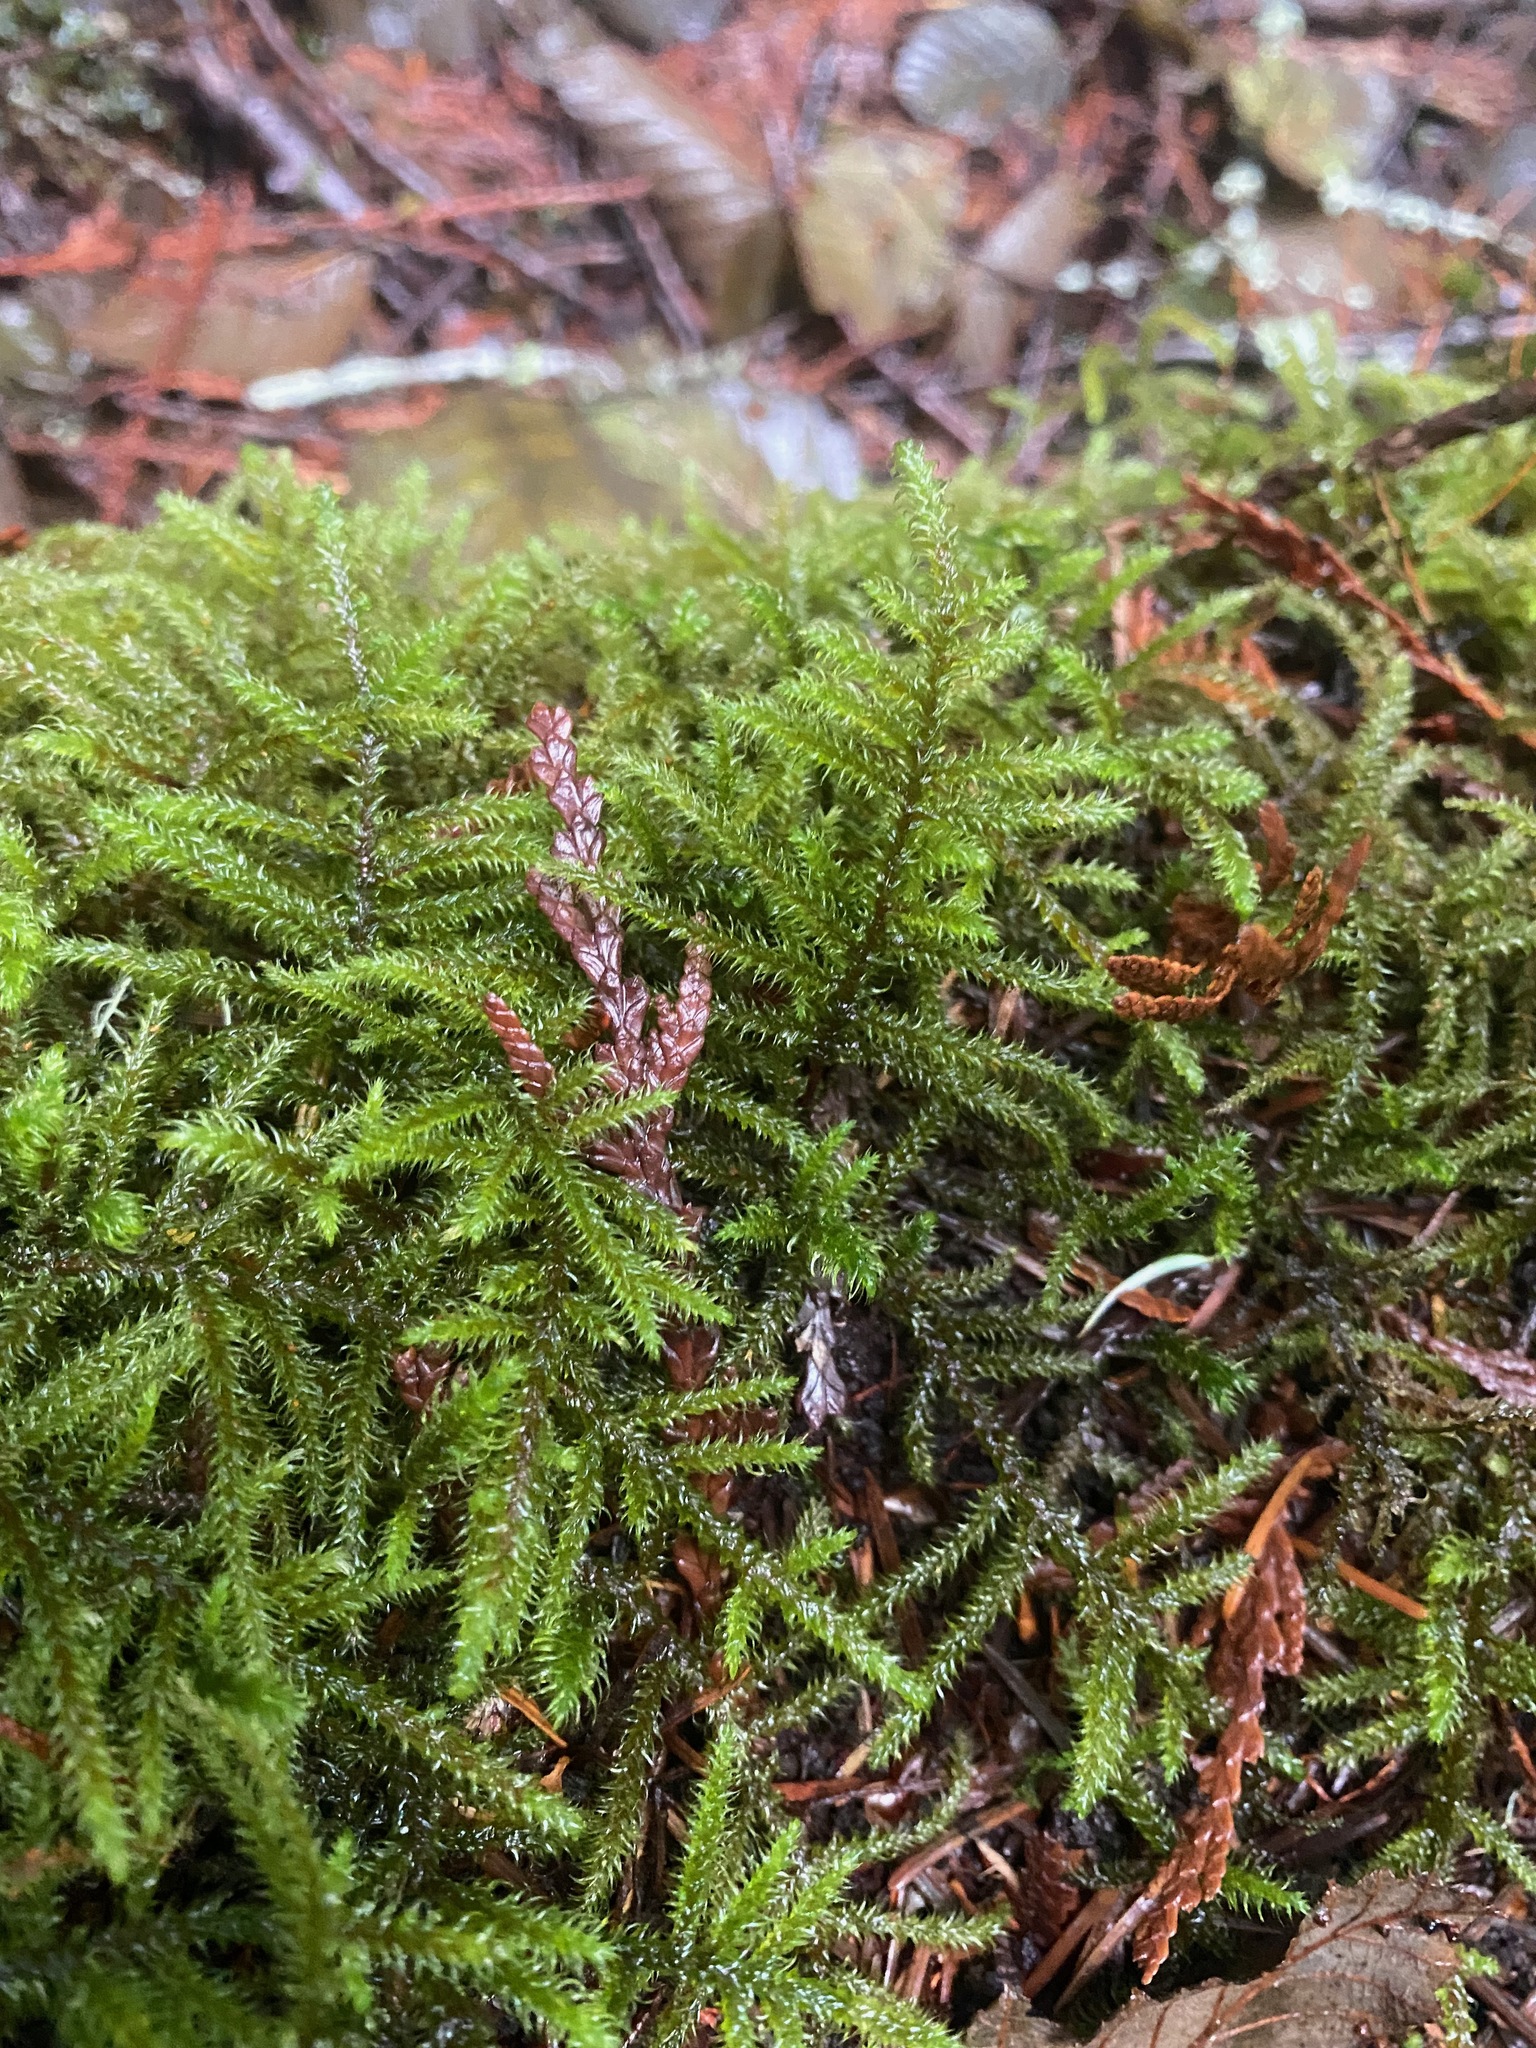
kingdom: Plantae
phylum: Bryophyta
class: Bryopsida
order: Hypnales
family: Hylocomiaceae
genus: Rhytidiadelphus
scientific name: Rhytidiadelphus loreus
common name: Lanky moss
